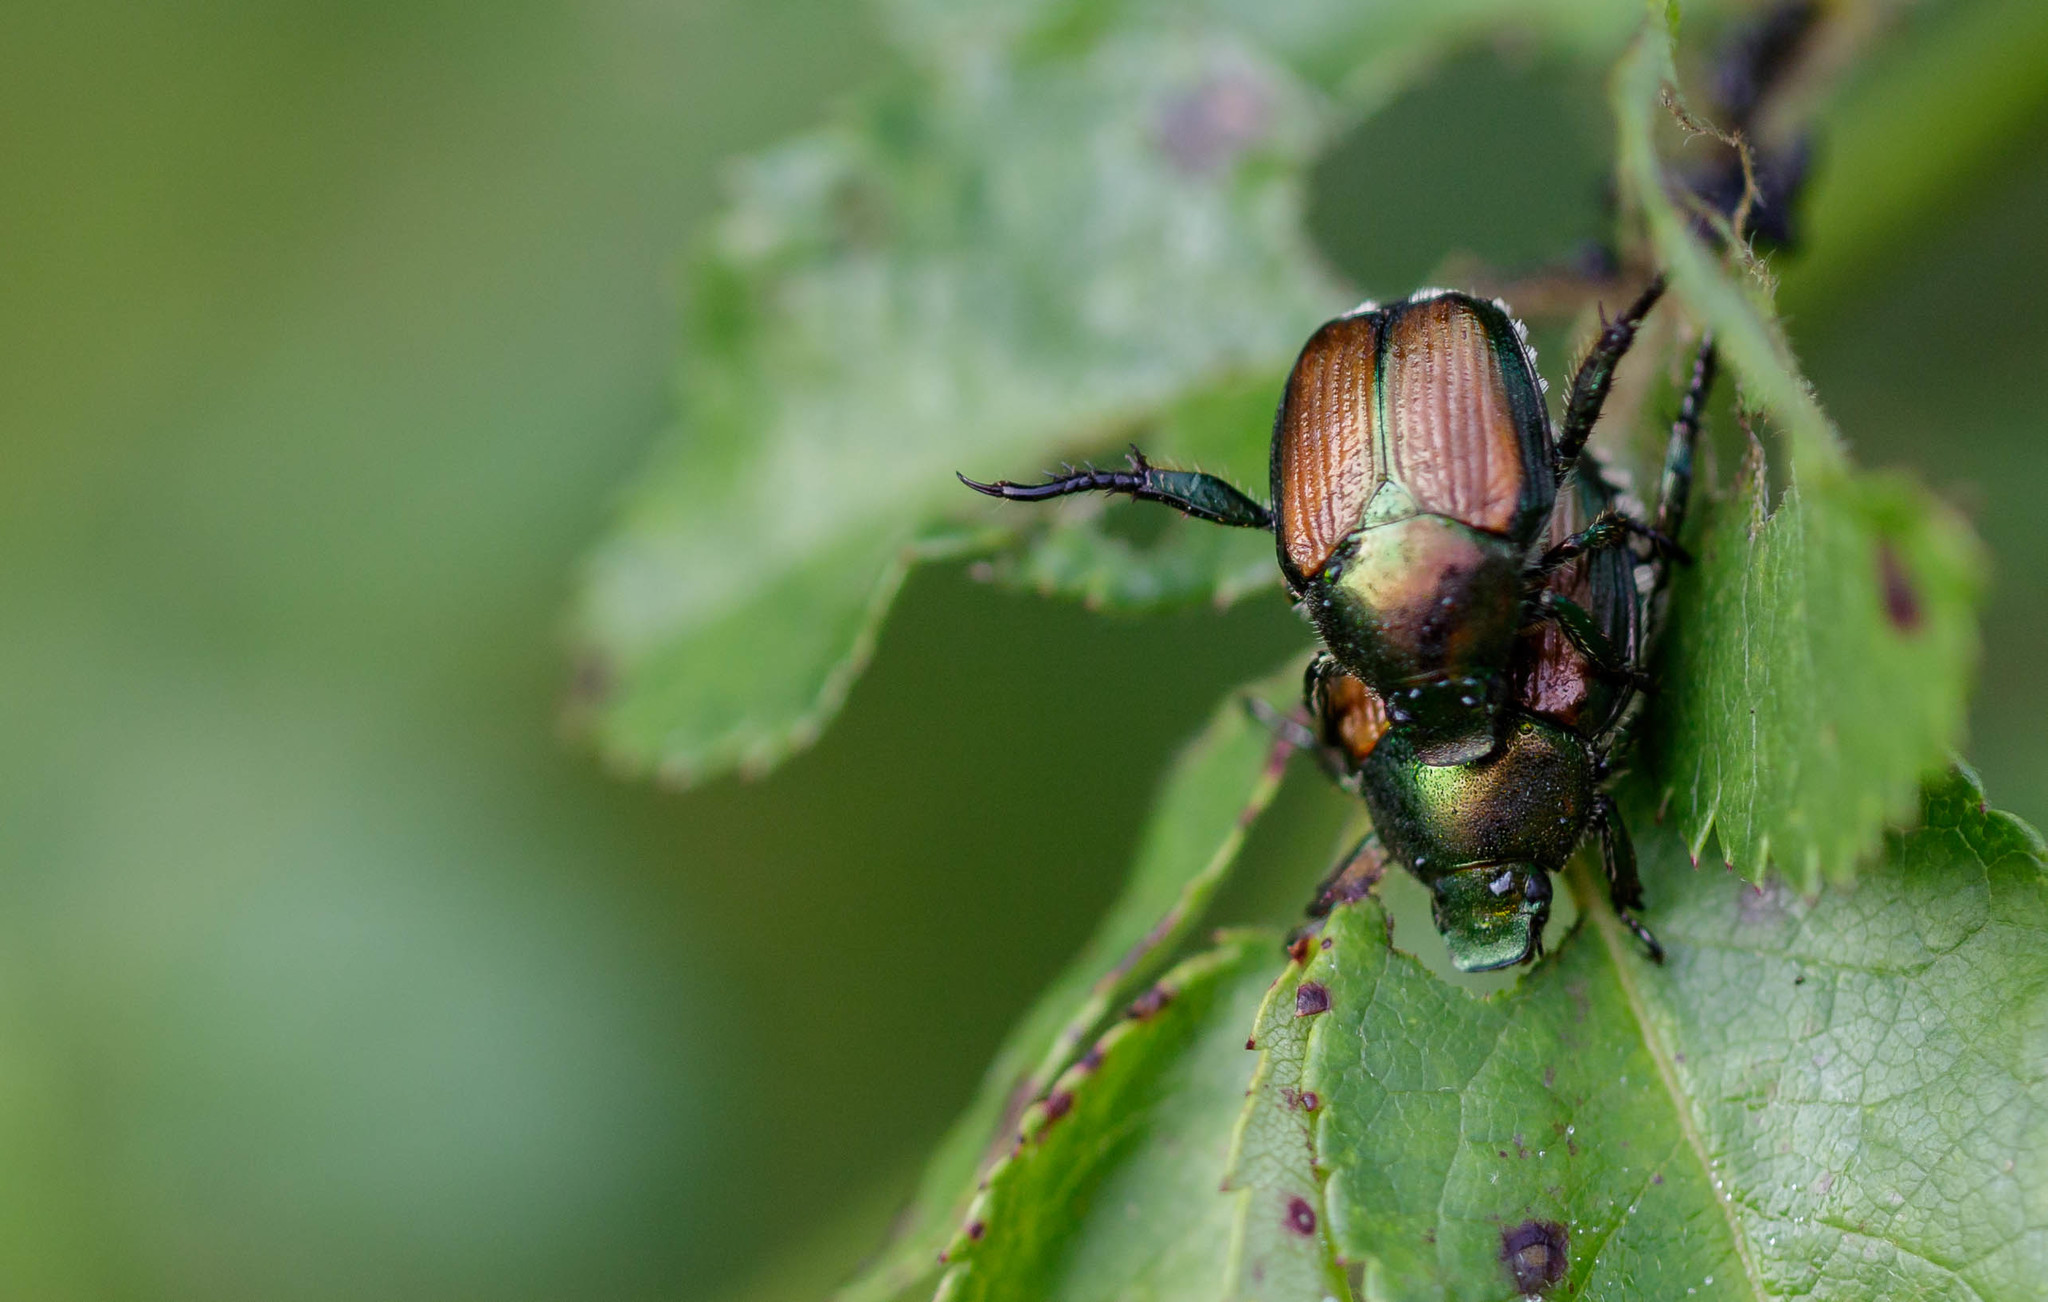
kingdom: Animalia
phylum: Arthropoda
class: Insecta
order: Coleoptera
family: Scarabaeidae
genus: Popillia
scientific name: Popillia japonica
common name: Japanese beetle
